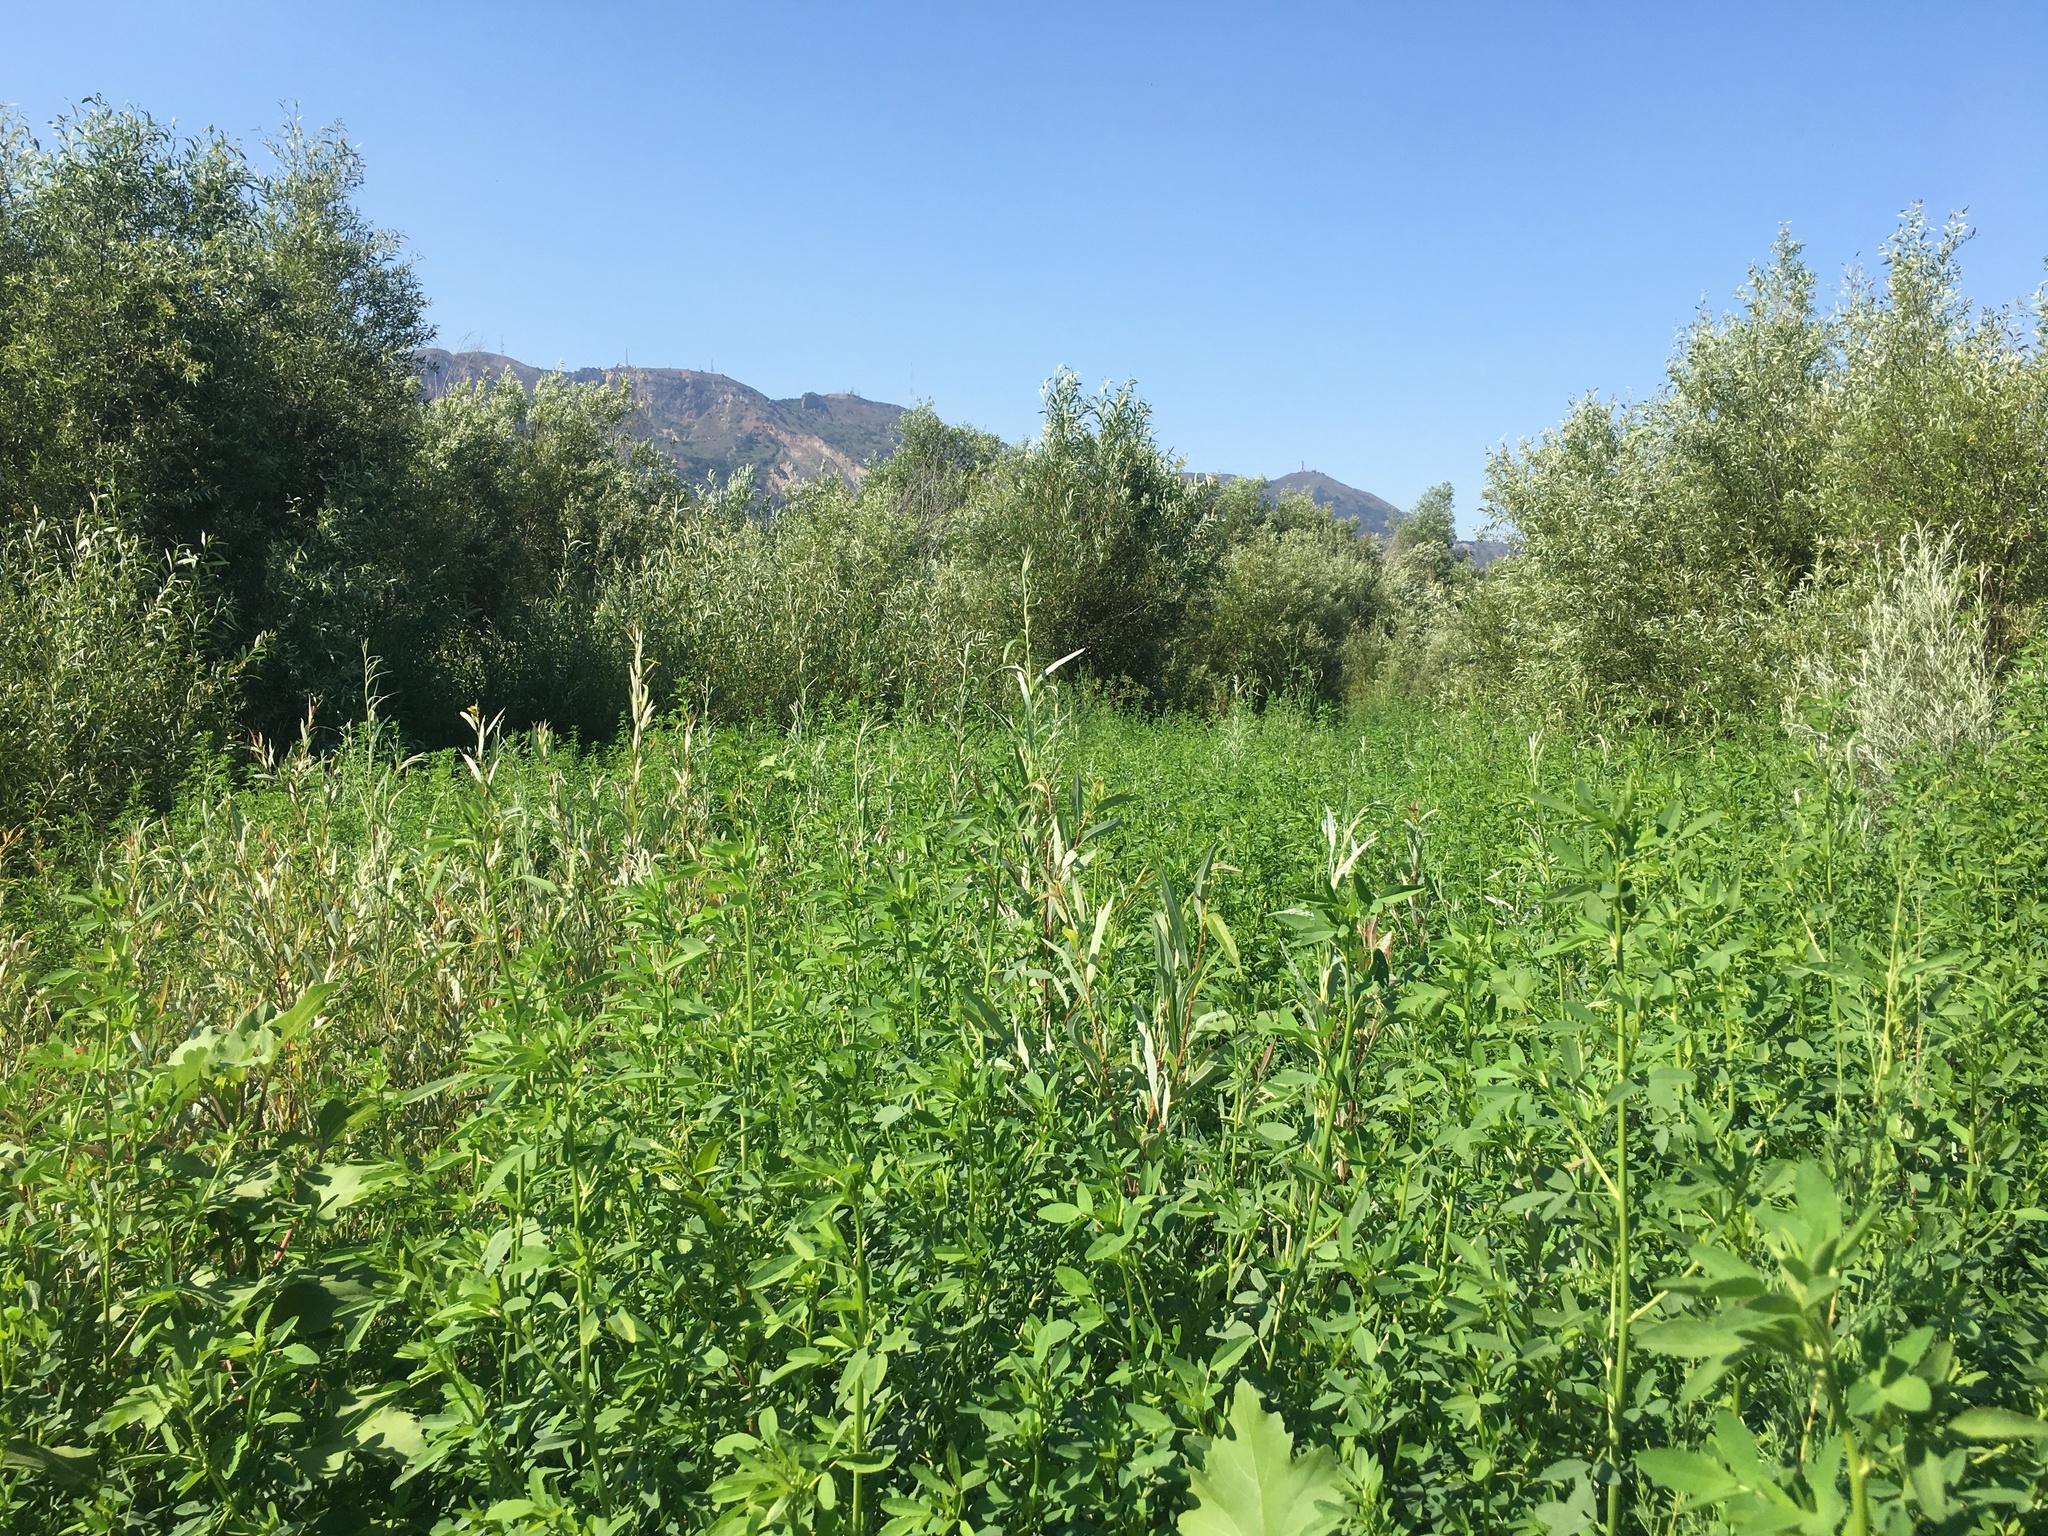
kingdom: Plantae
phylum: Tracheophyta
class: Magnoliopsida
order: Fabales
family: Fabaceae
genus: Melilotus
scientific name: Melilotus albus
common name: White melilot
